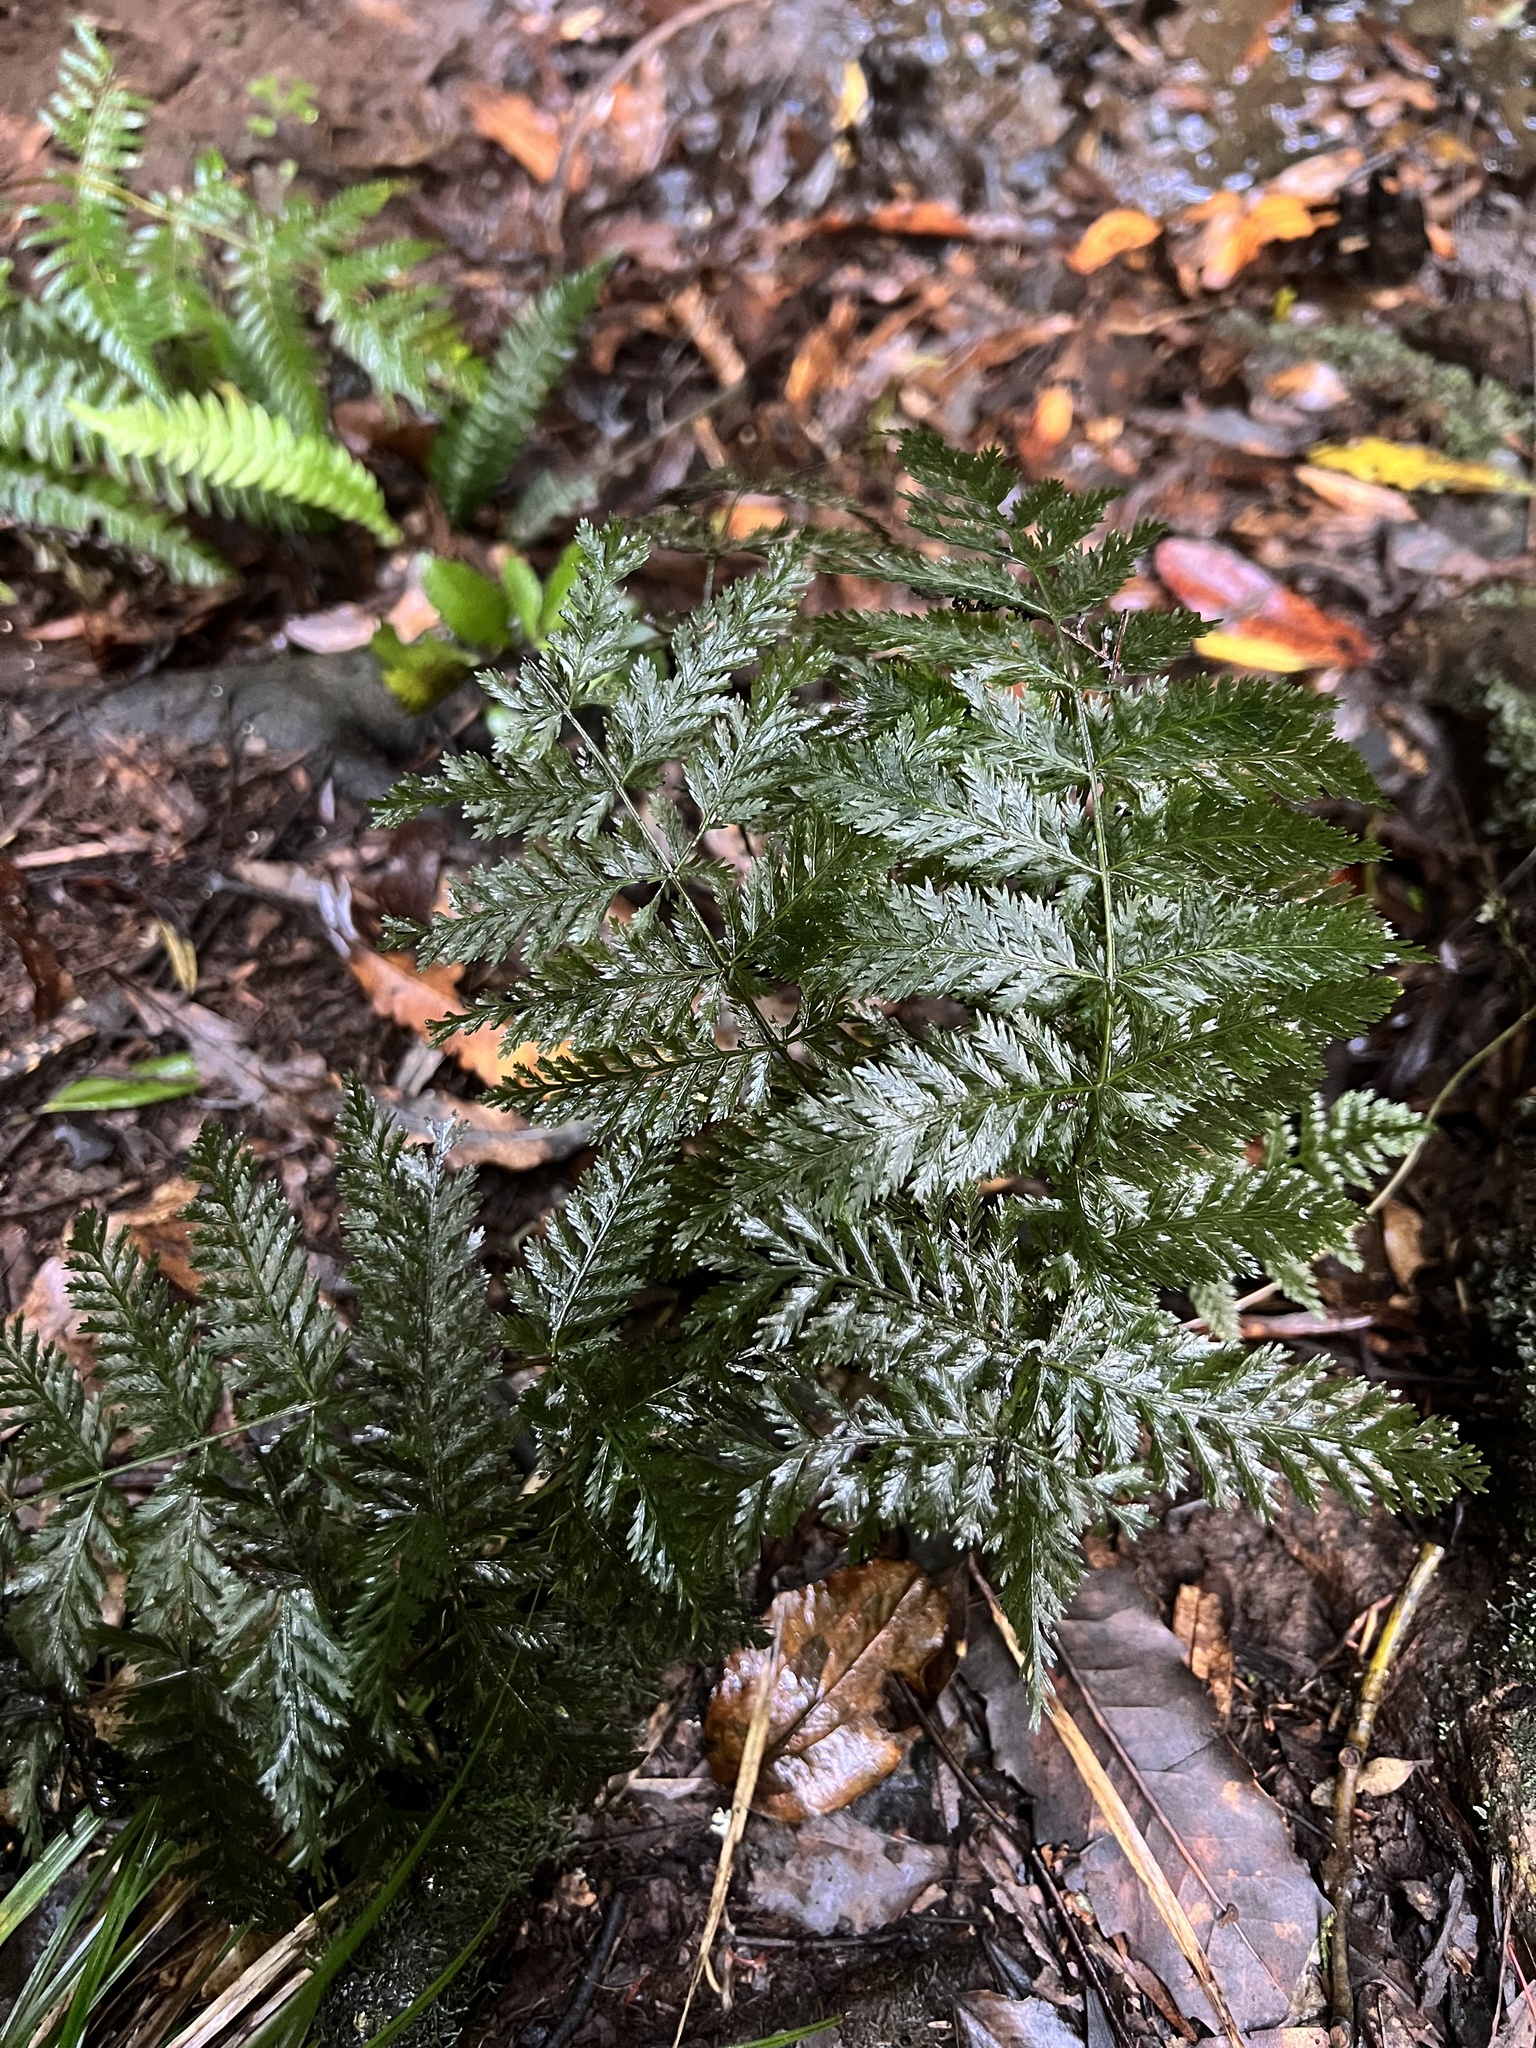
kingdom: Plantae
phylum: Tracheophyta
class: Polypodiopsida
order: Osmundales
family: Osmundaceae
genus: Leptopteris
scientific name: Leptopteris hymenophylloides
